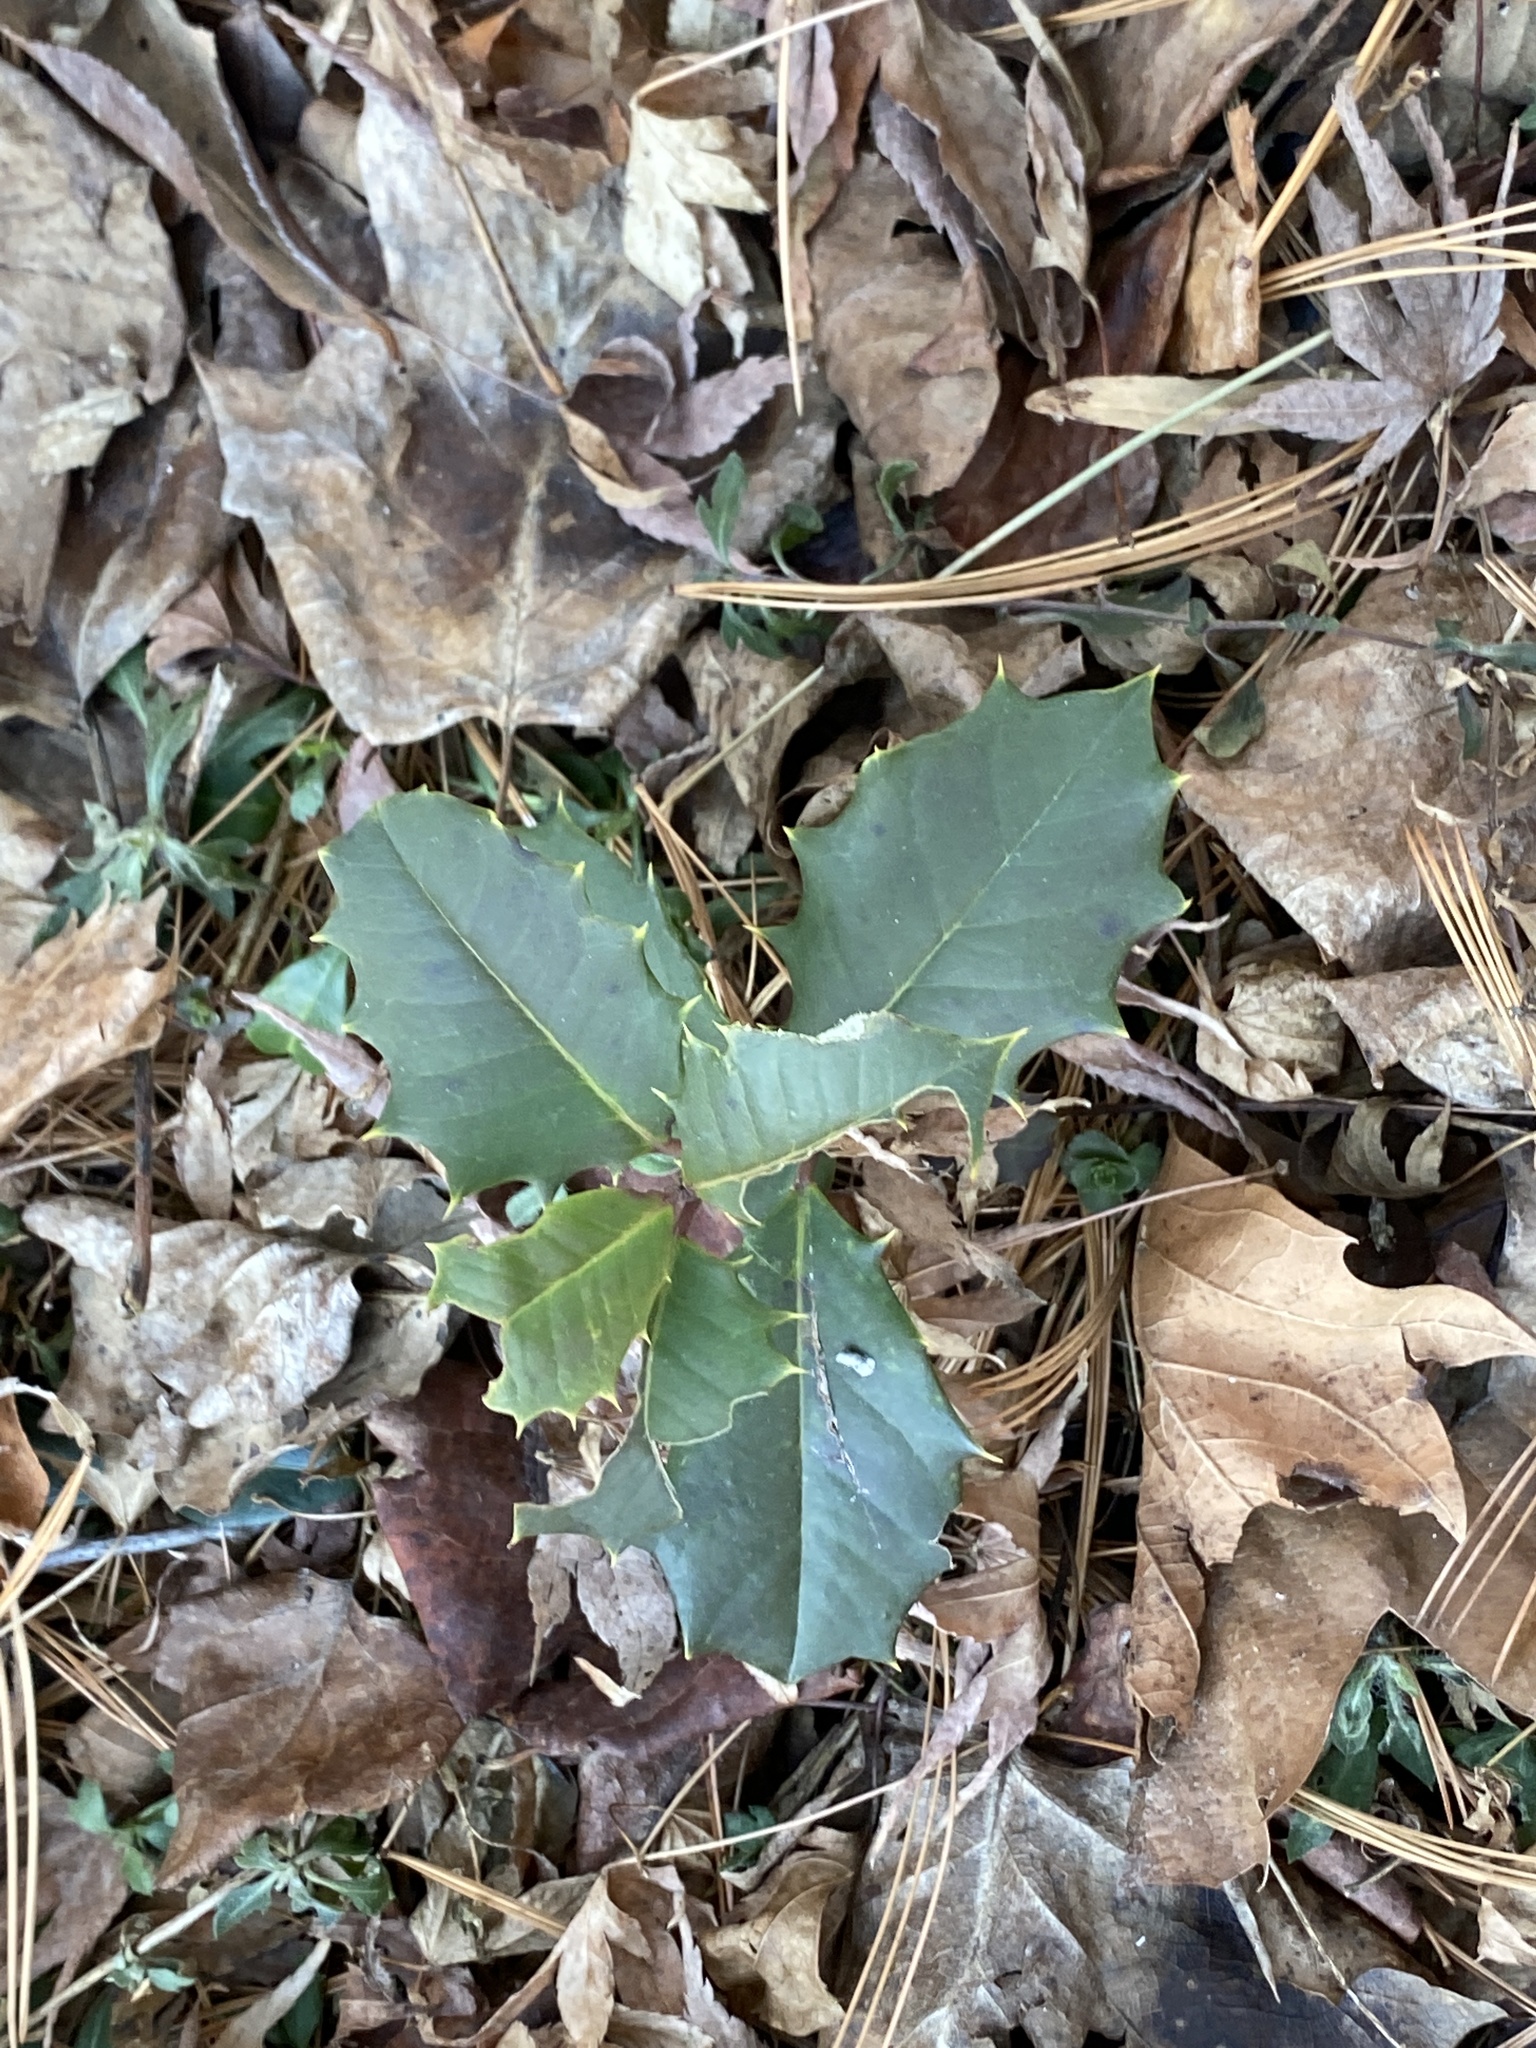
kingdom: Plantae
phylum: Tracheophyta
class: Magnoliopsida
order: Aquifoliales
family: Aquifoliaceae
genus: Ilex
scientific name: Ilex opaca
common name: American holly
